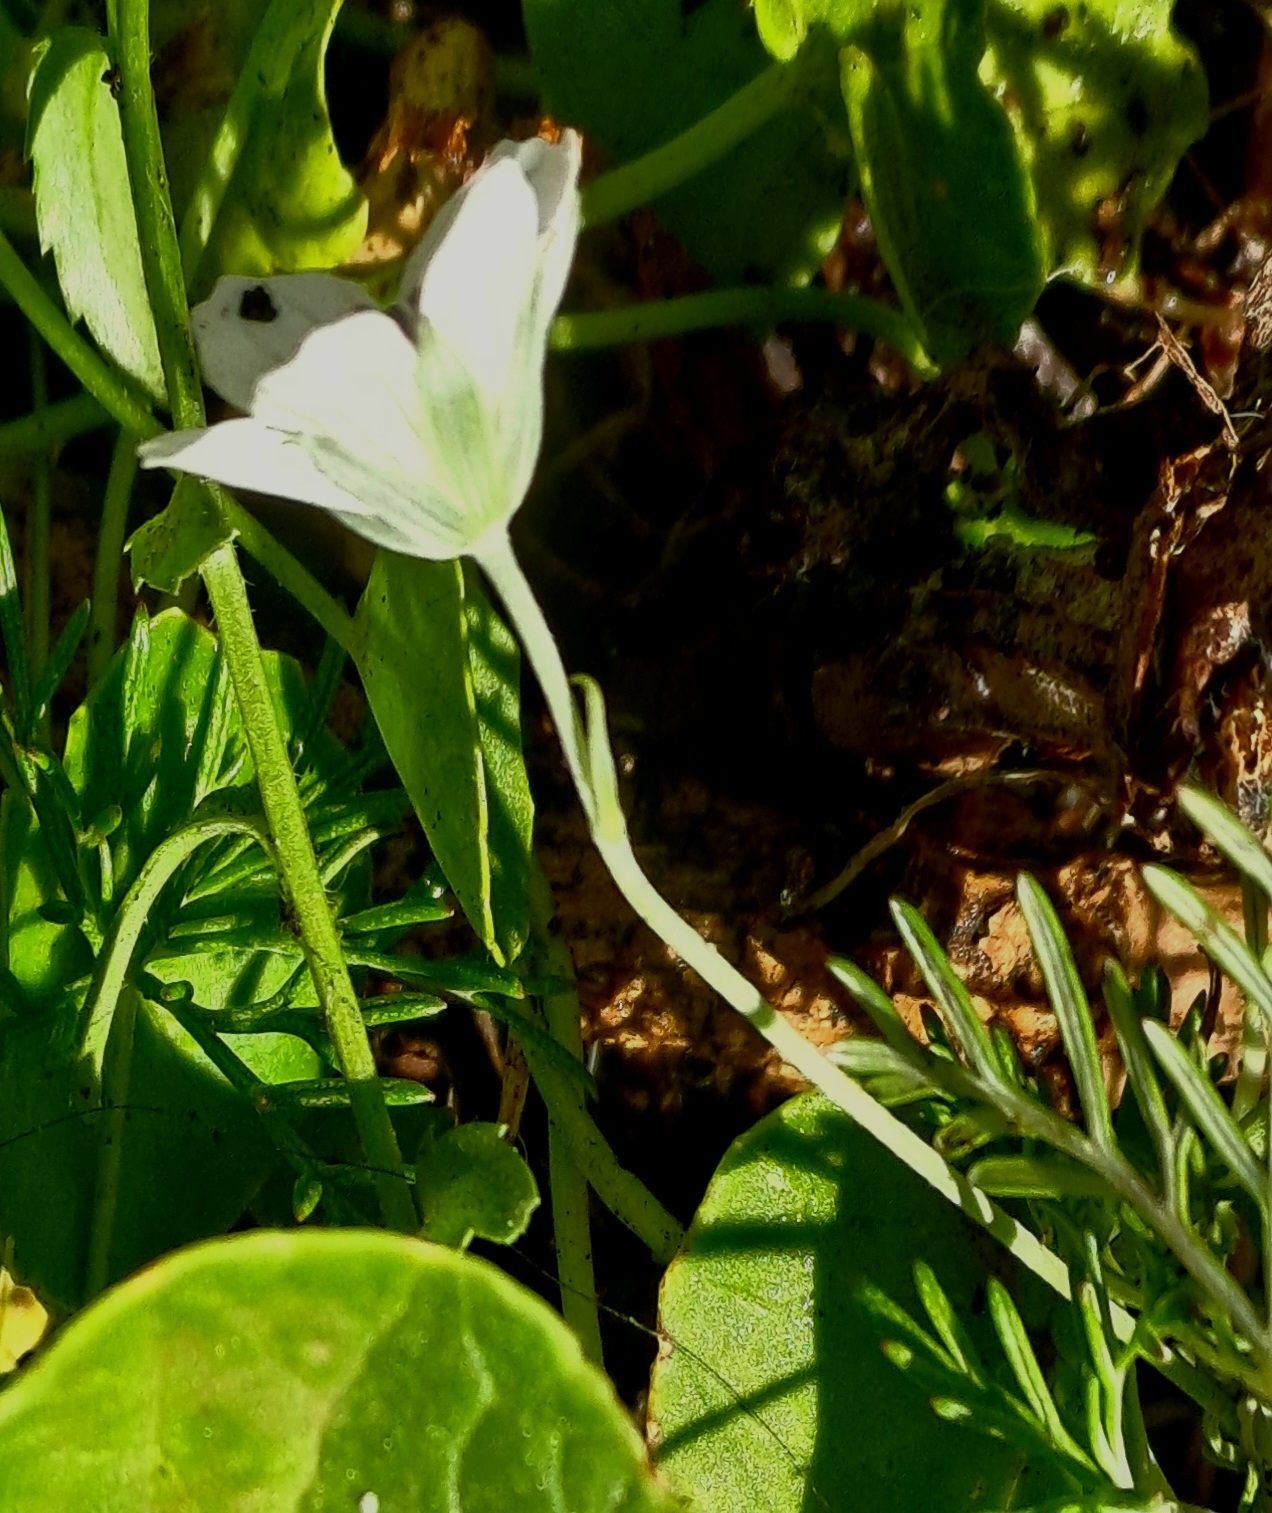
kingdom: Plantae
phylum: Tracheophyta
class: Magnoliopsida
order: Geraniales
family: Geraniaceae
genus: Geranium
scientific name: Geranium incanum
